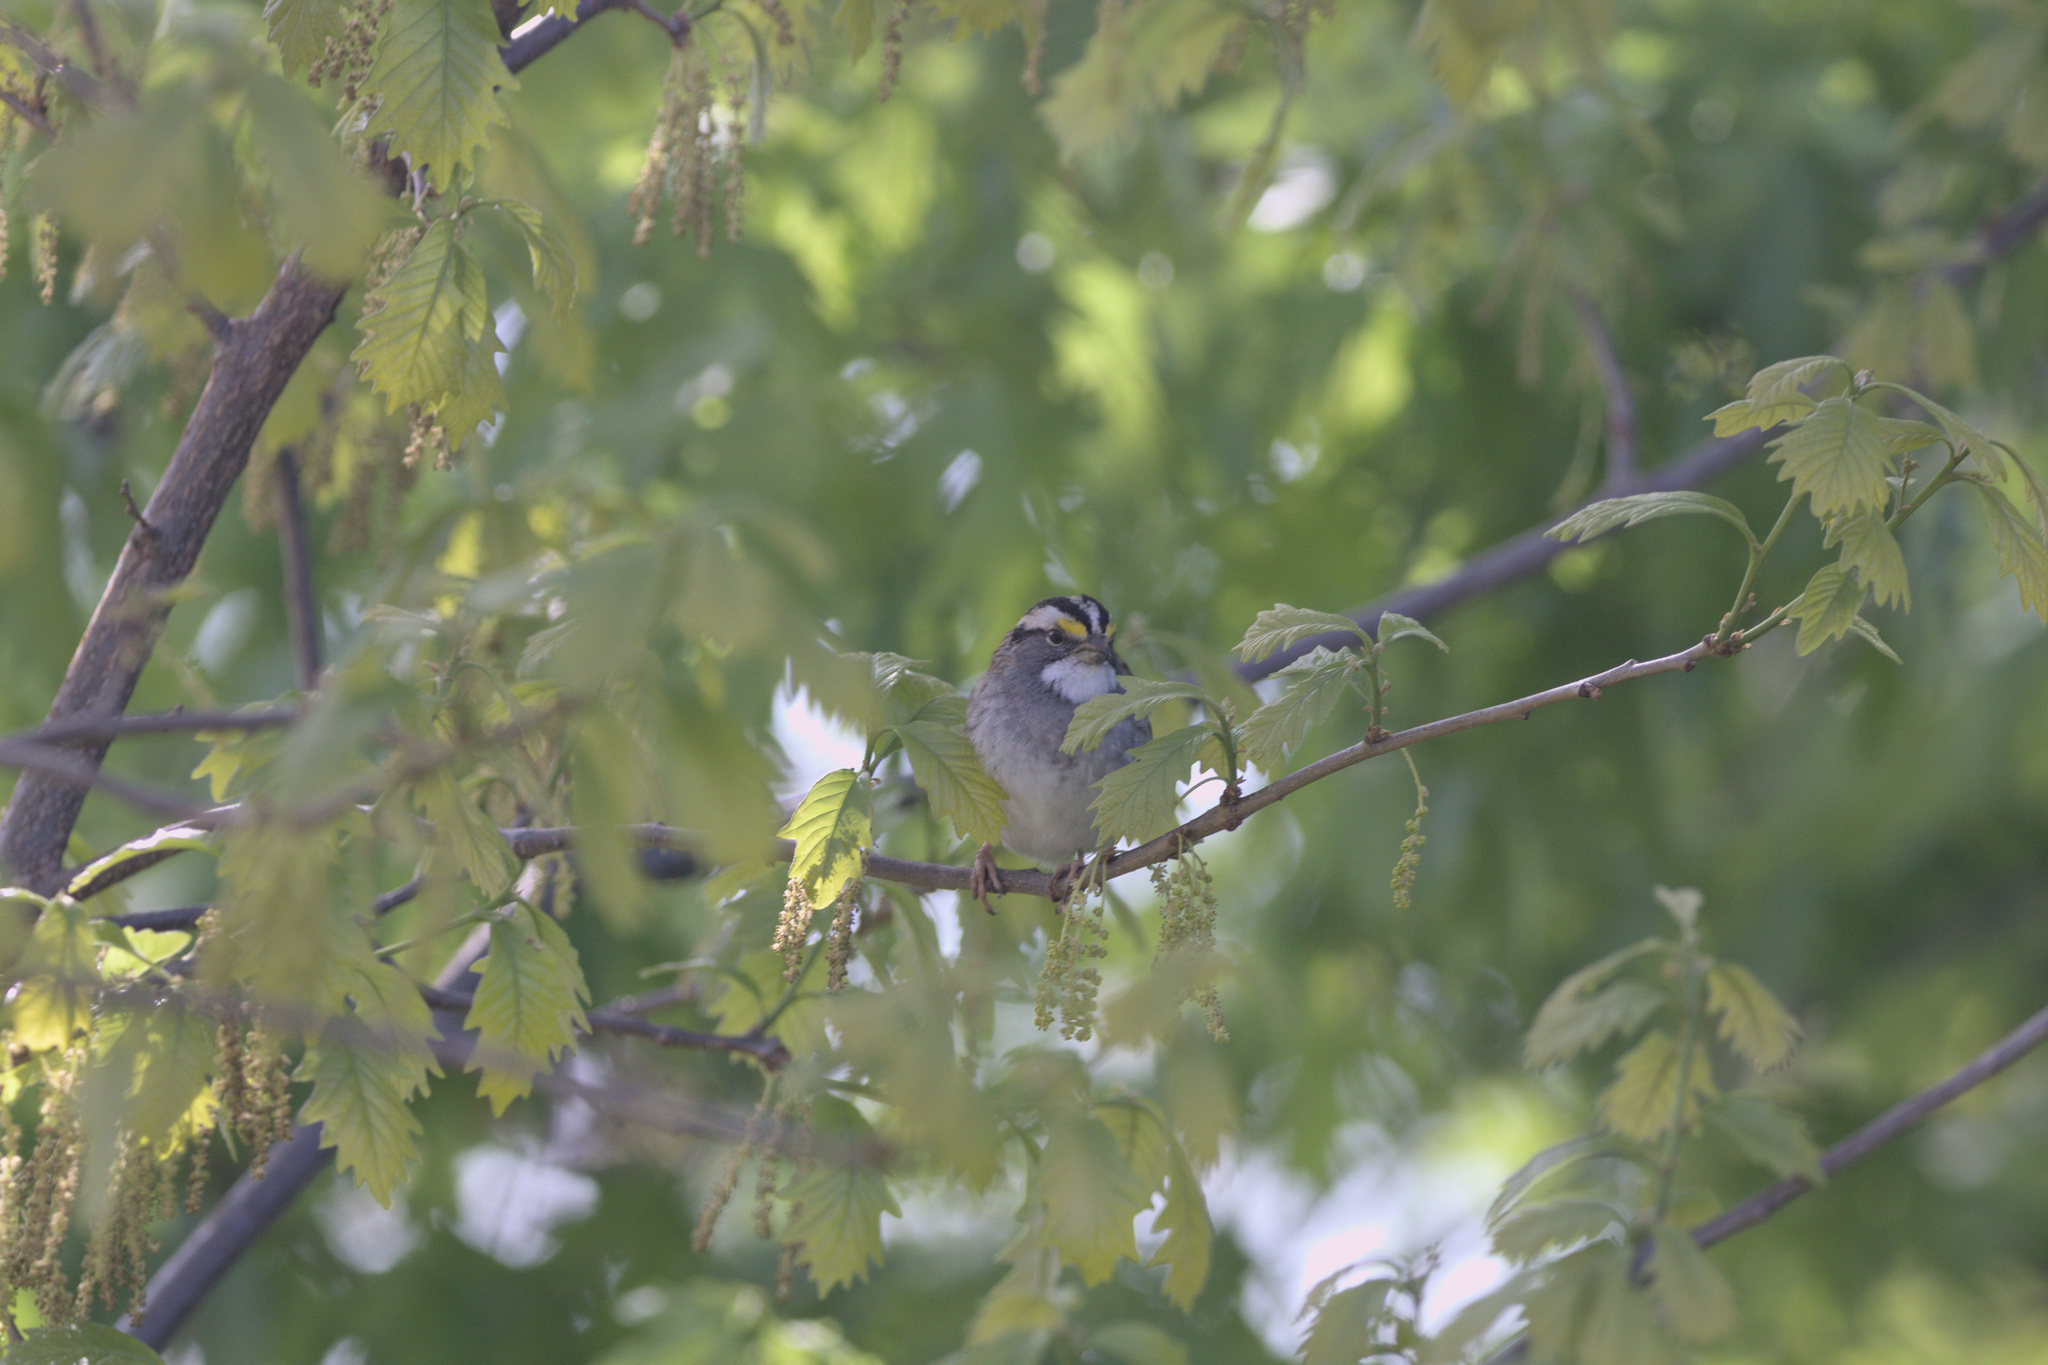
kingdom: Animalia
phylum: Chordata
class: Aves
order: Passeriformes
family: Passerellidae
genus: Zonotrichia
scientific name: Zonotrichia albicollis
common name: White-throated sparrow
